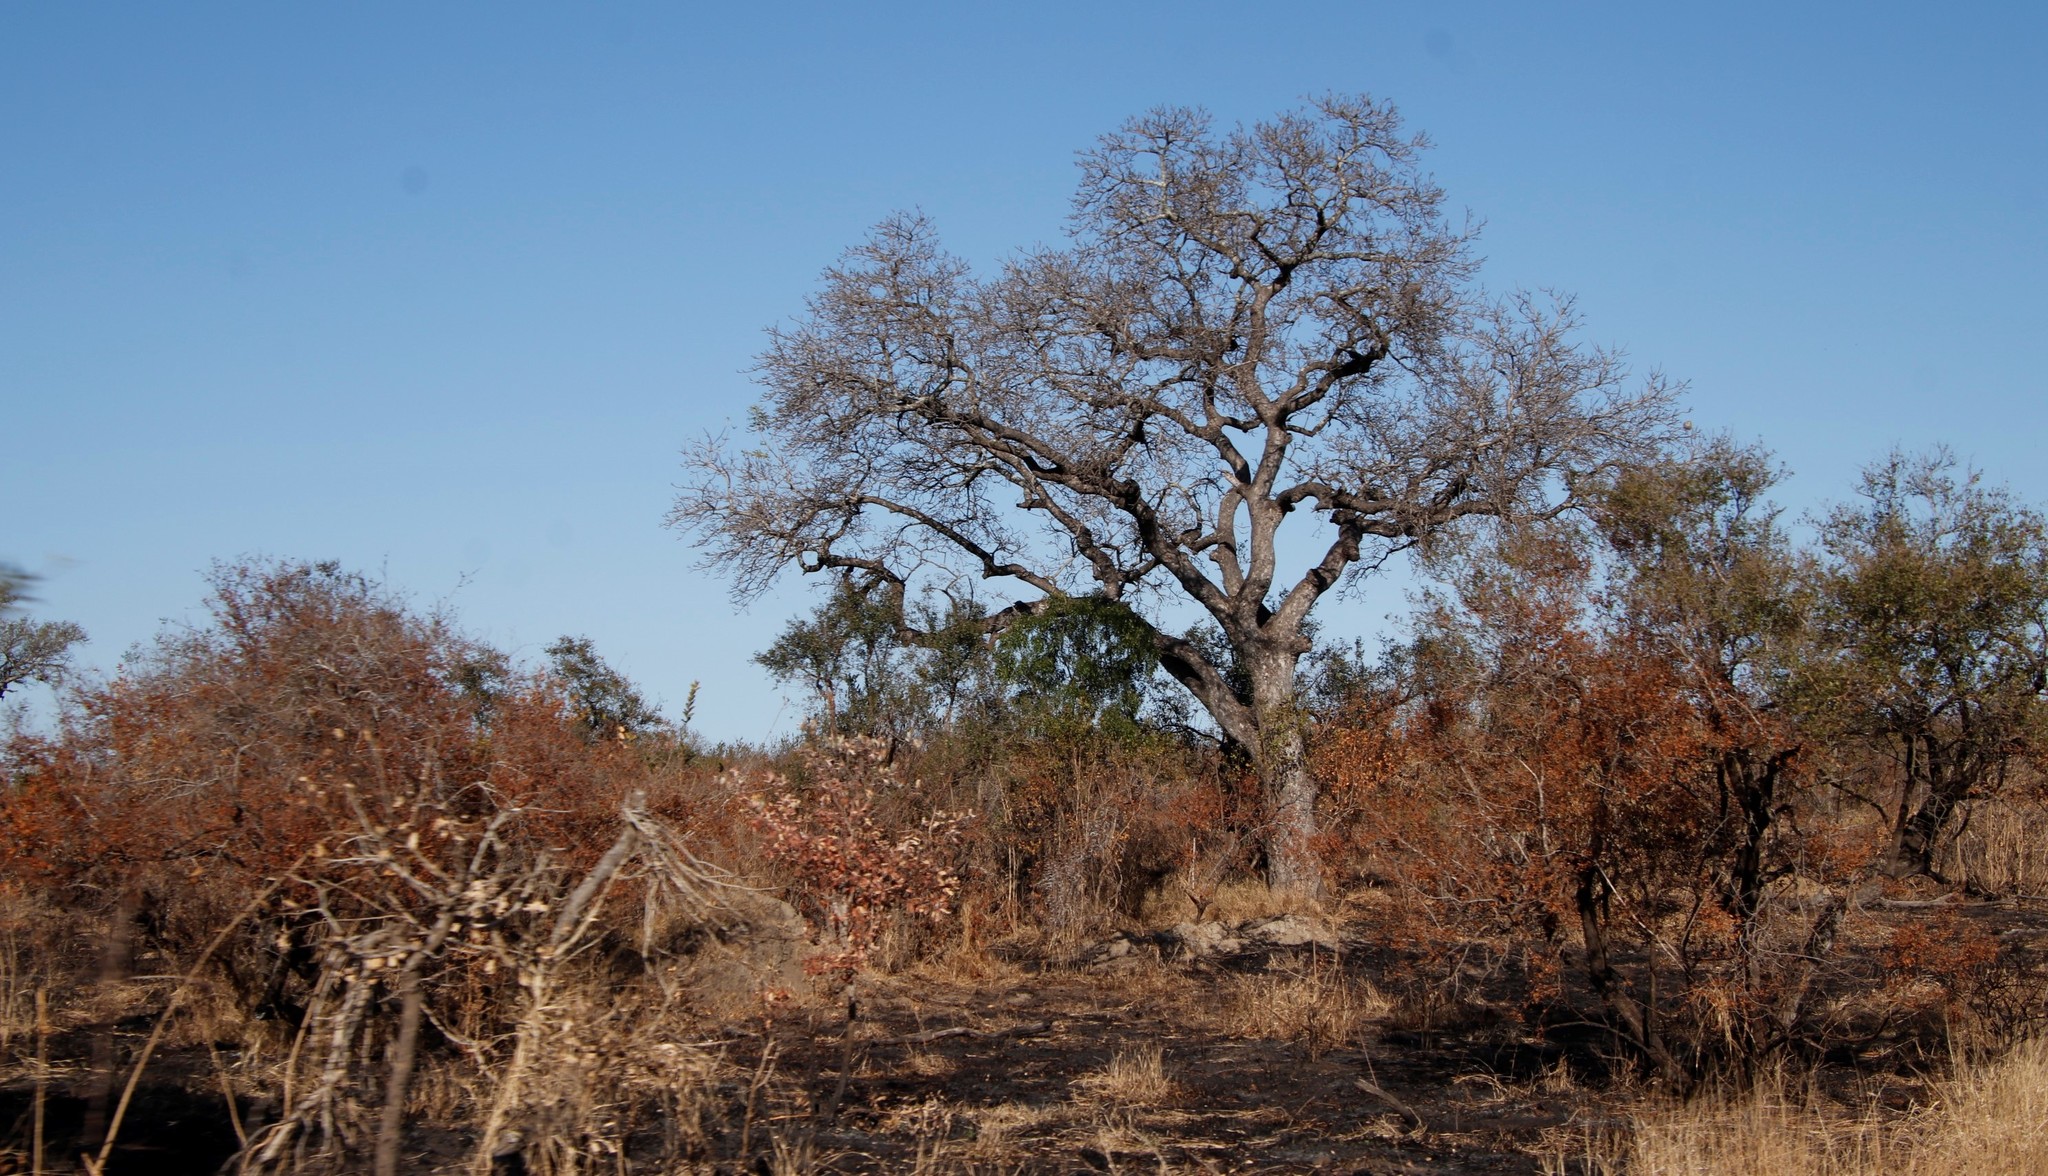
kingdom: Plantae
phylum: Tracheophyta
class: Magnoliopsida
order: Sapindales
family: Anacardiaceae
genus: Sclerocarya
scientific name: Sclerocarya birrea
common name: Marula
